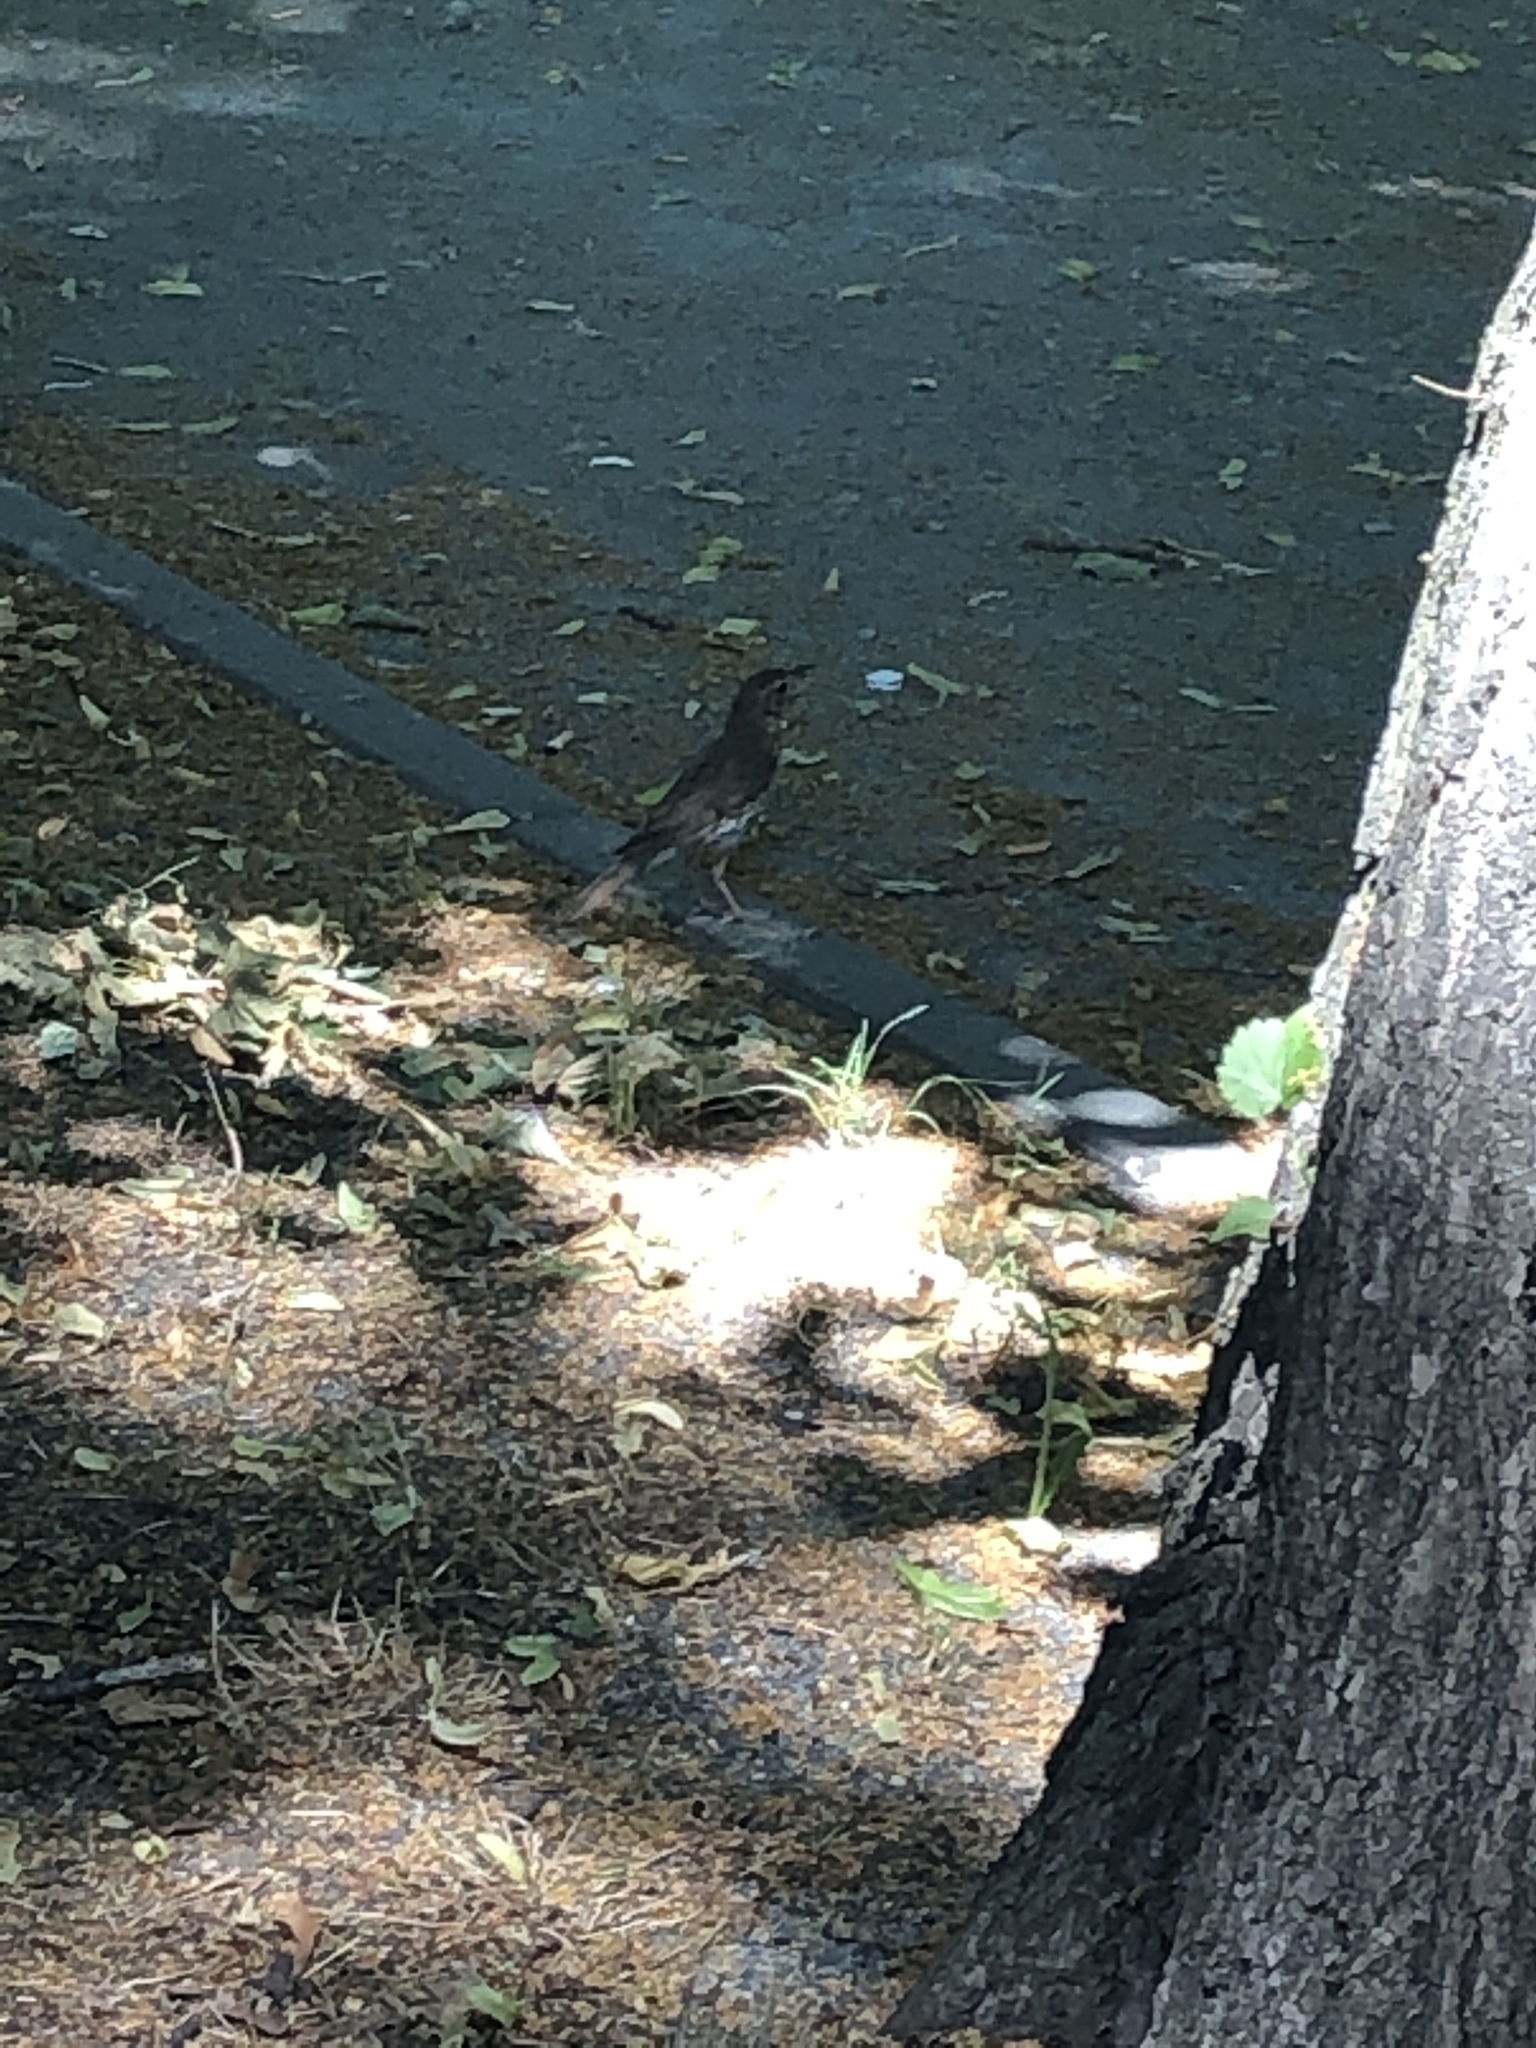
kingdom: Animalia
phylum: Chordata
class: Aves
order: Passeriformes
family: Turdidae
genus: Turdus
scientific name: Turdus philomelos
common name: Song thrush
